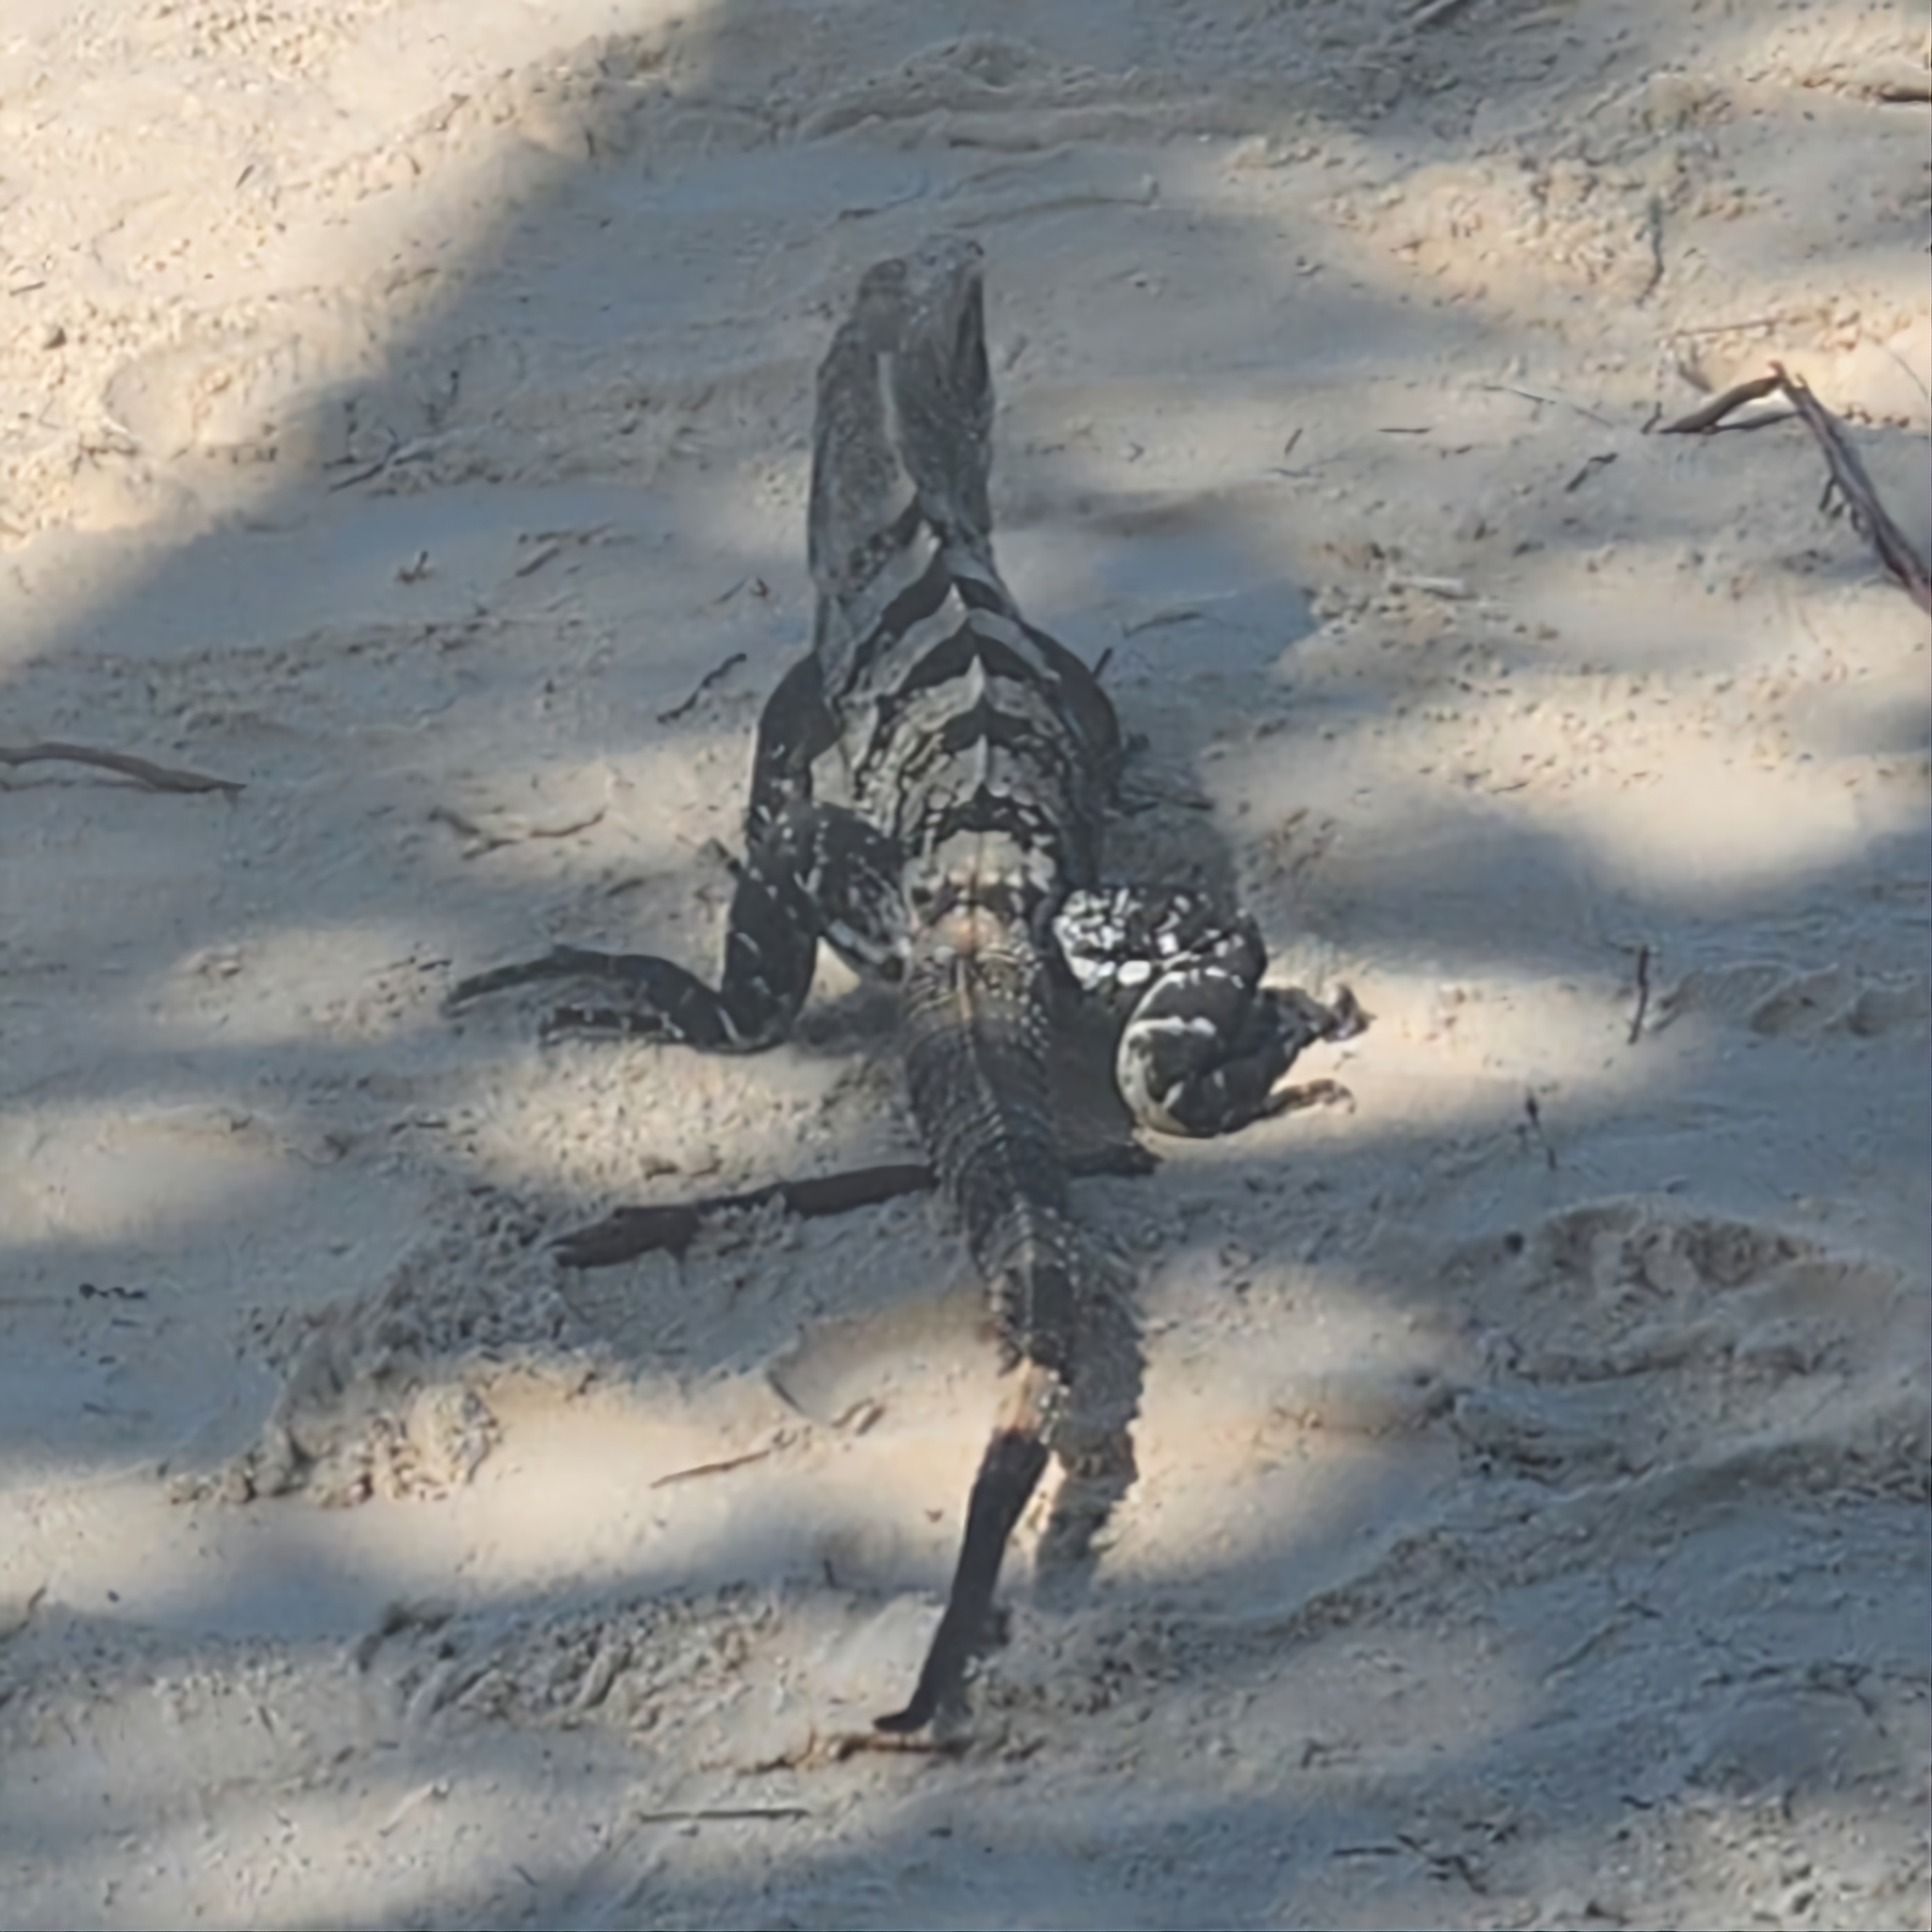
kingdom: Animalia
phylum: Chordata
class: Squamata
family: Iguanidae
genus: Ctenosaura
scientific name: Ctenosaura similis
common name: Black spiny-tailed iguana
